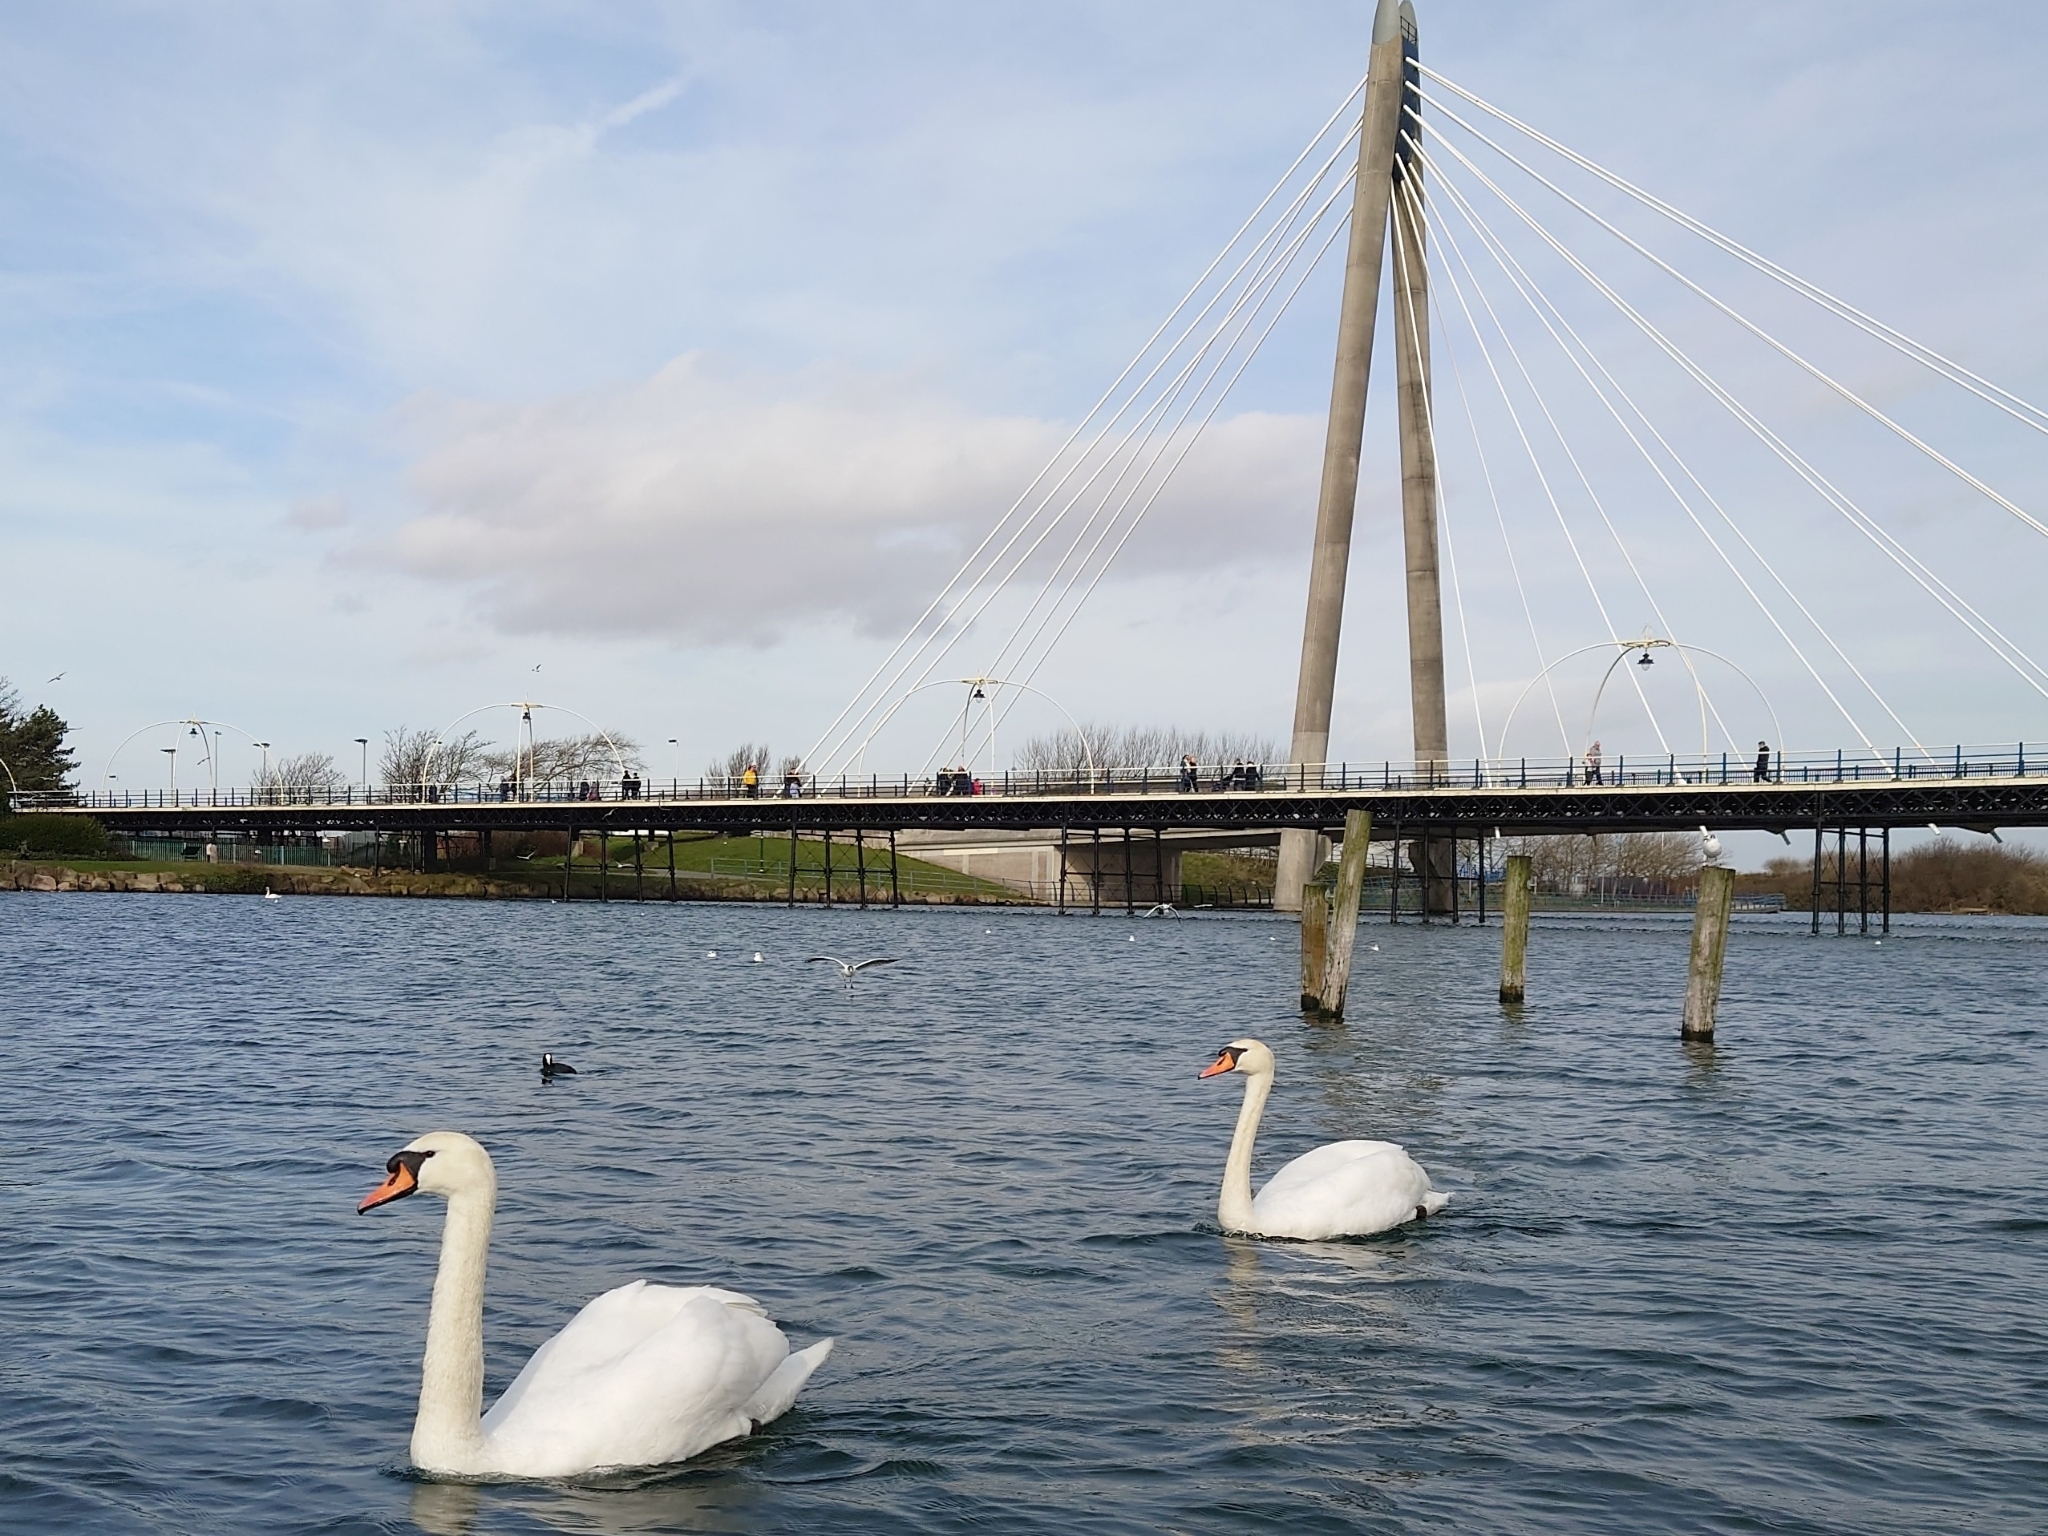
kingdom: Animalia
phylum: Chordata
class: Aves
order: Anseriformes
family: Anatidae
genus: Cygnus
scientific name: Cygnus olor
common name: Mute swan
